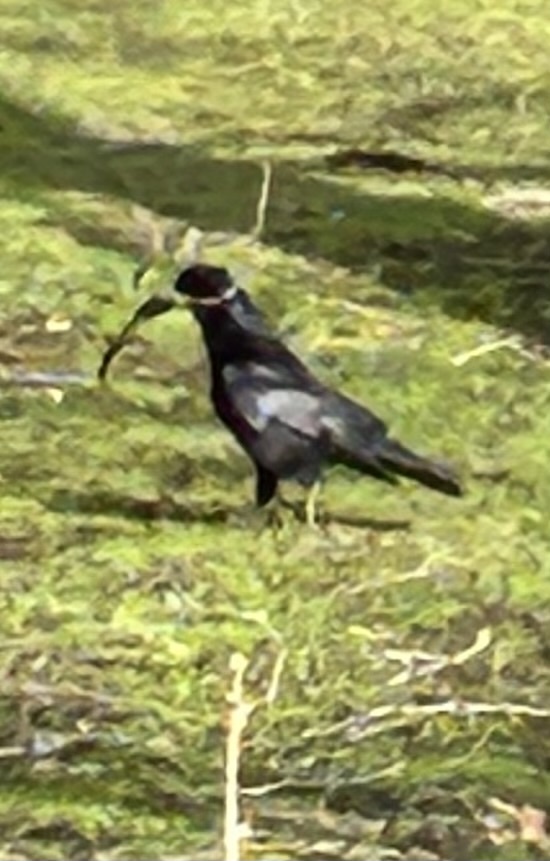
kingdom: Animalia
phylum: Chordata
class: Aves
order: Passeriformes
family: Corvidae
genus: Corvus
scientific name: Corvus frugilegus
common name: Rook
